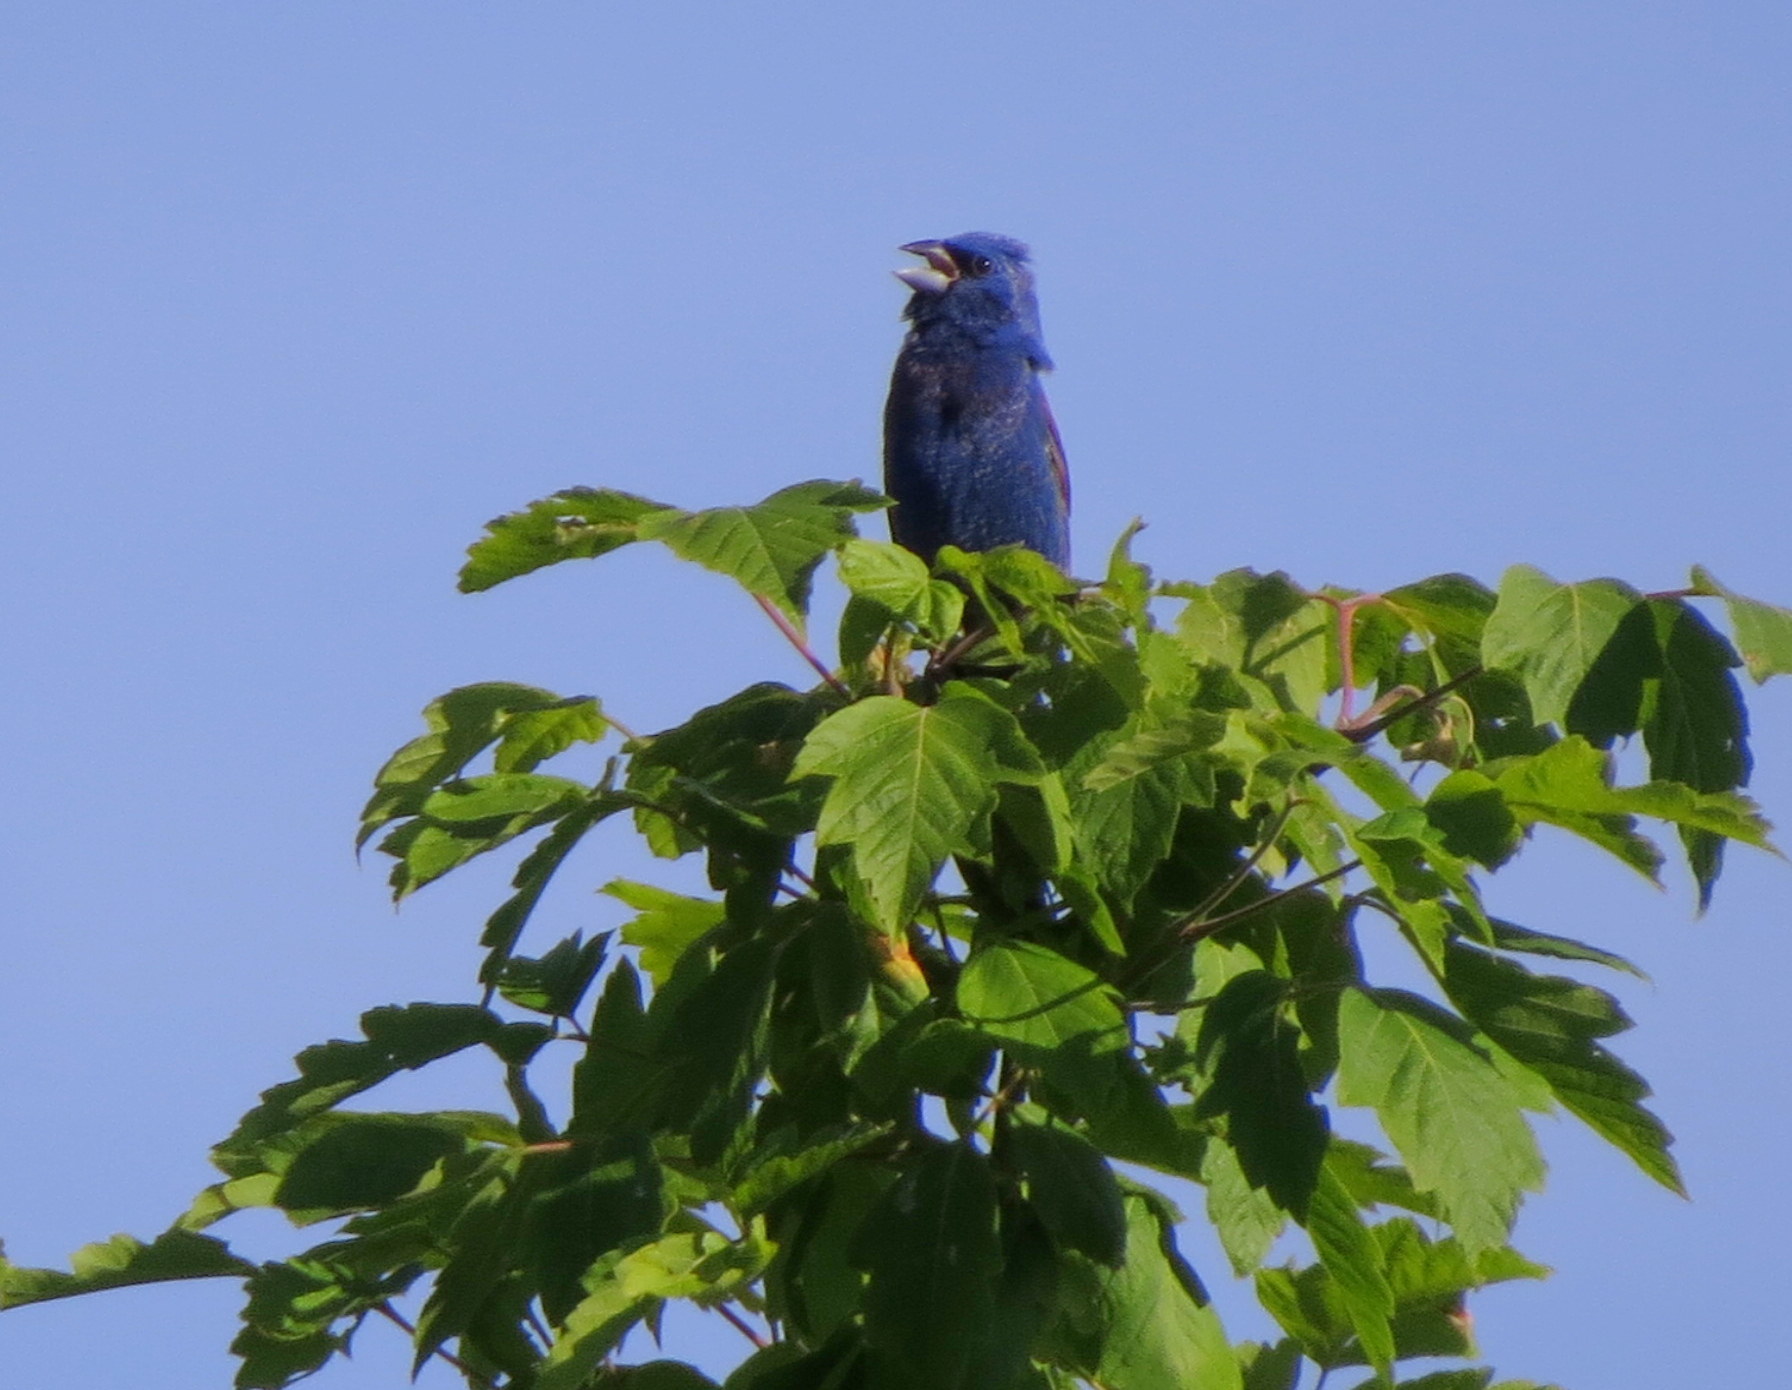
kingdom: Animalia
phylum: Chordata
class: Aves
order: Passeriformes
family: Cardinalidae
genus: Passerina
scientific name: Passerina caerulea
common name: Blue grosbeak
